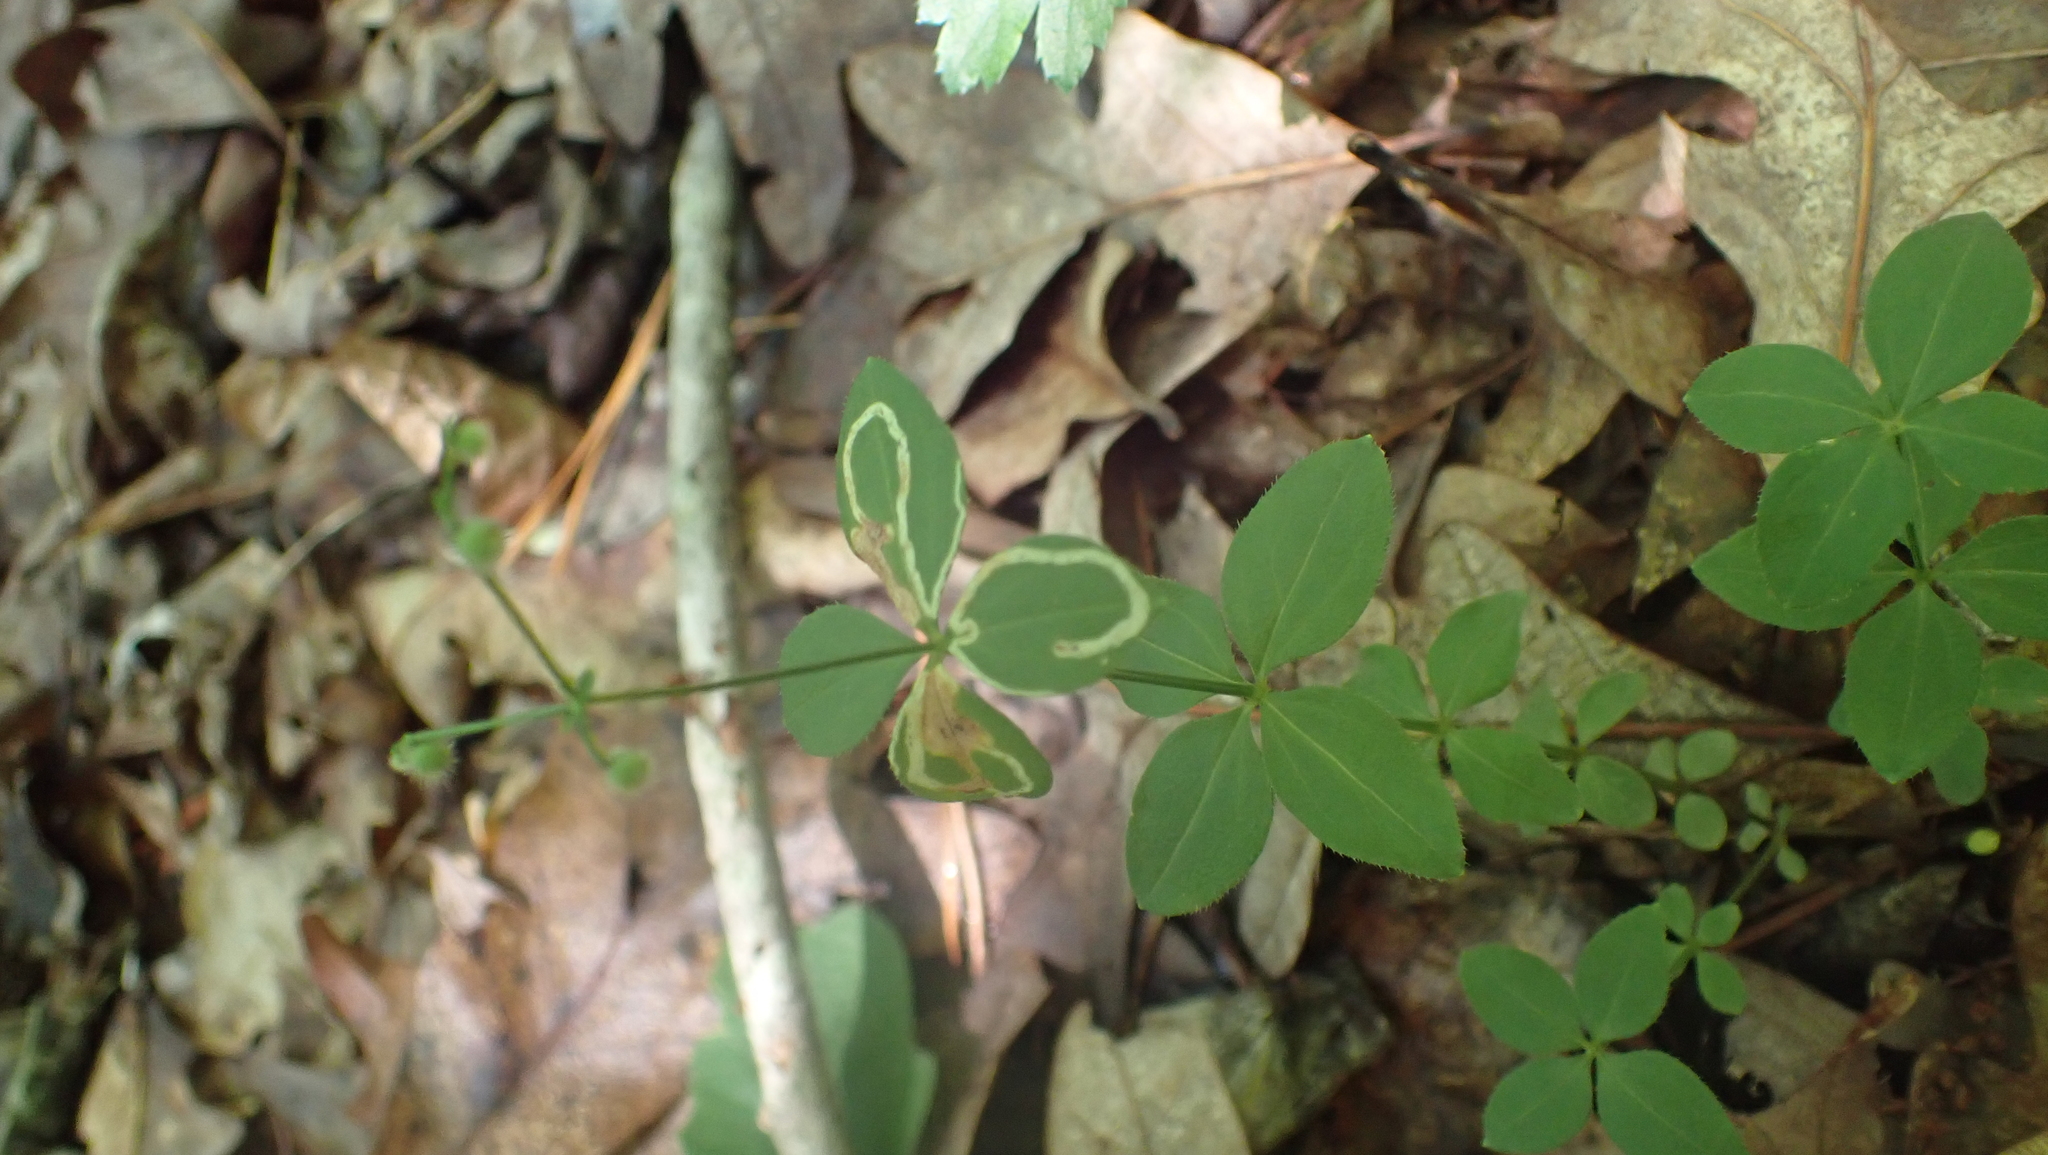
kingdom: Animalia
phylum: Arthropoda
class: Insecta
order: Diptera
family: Agromyzidae
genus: Liriomyza
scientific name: Liriomyza galiivora
